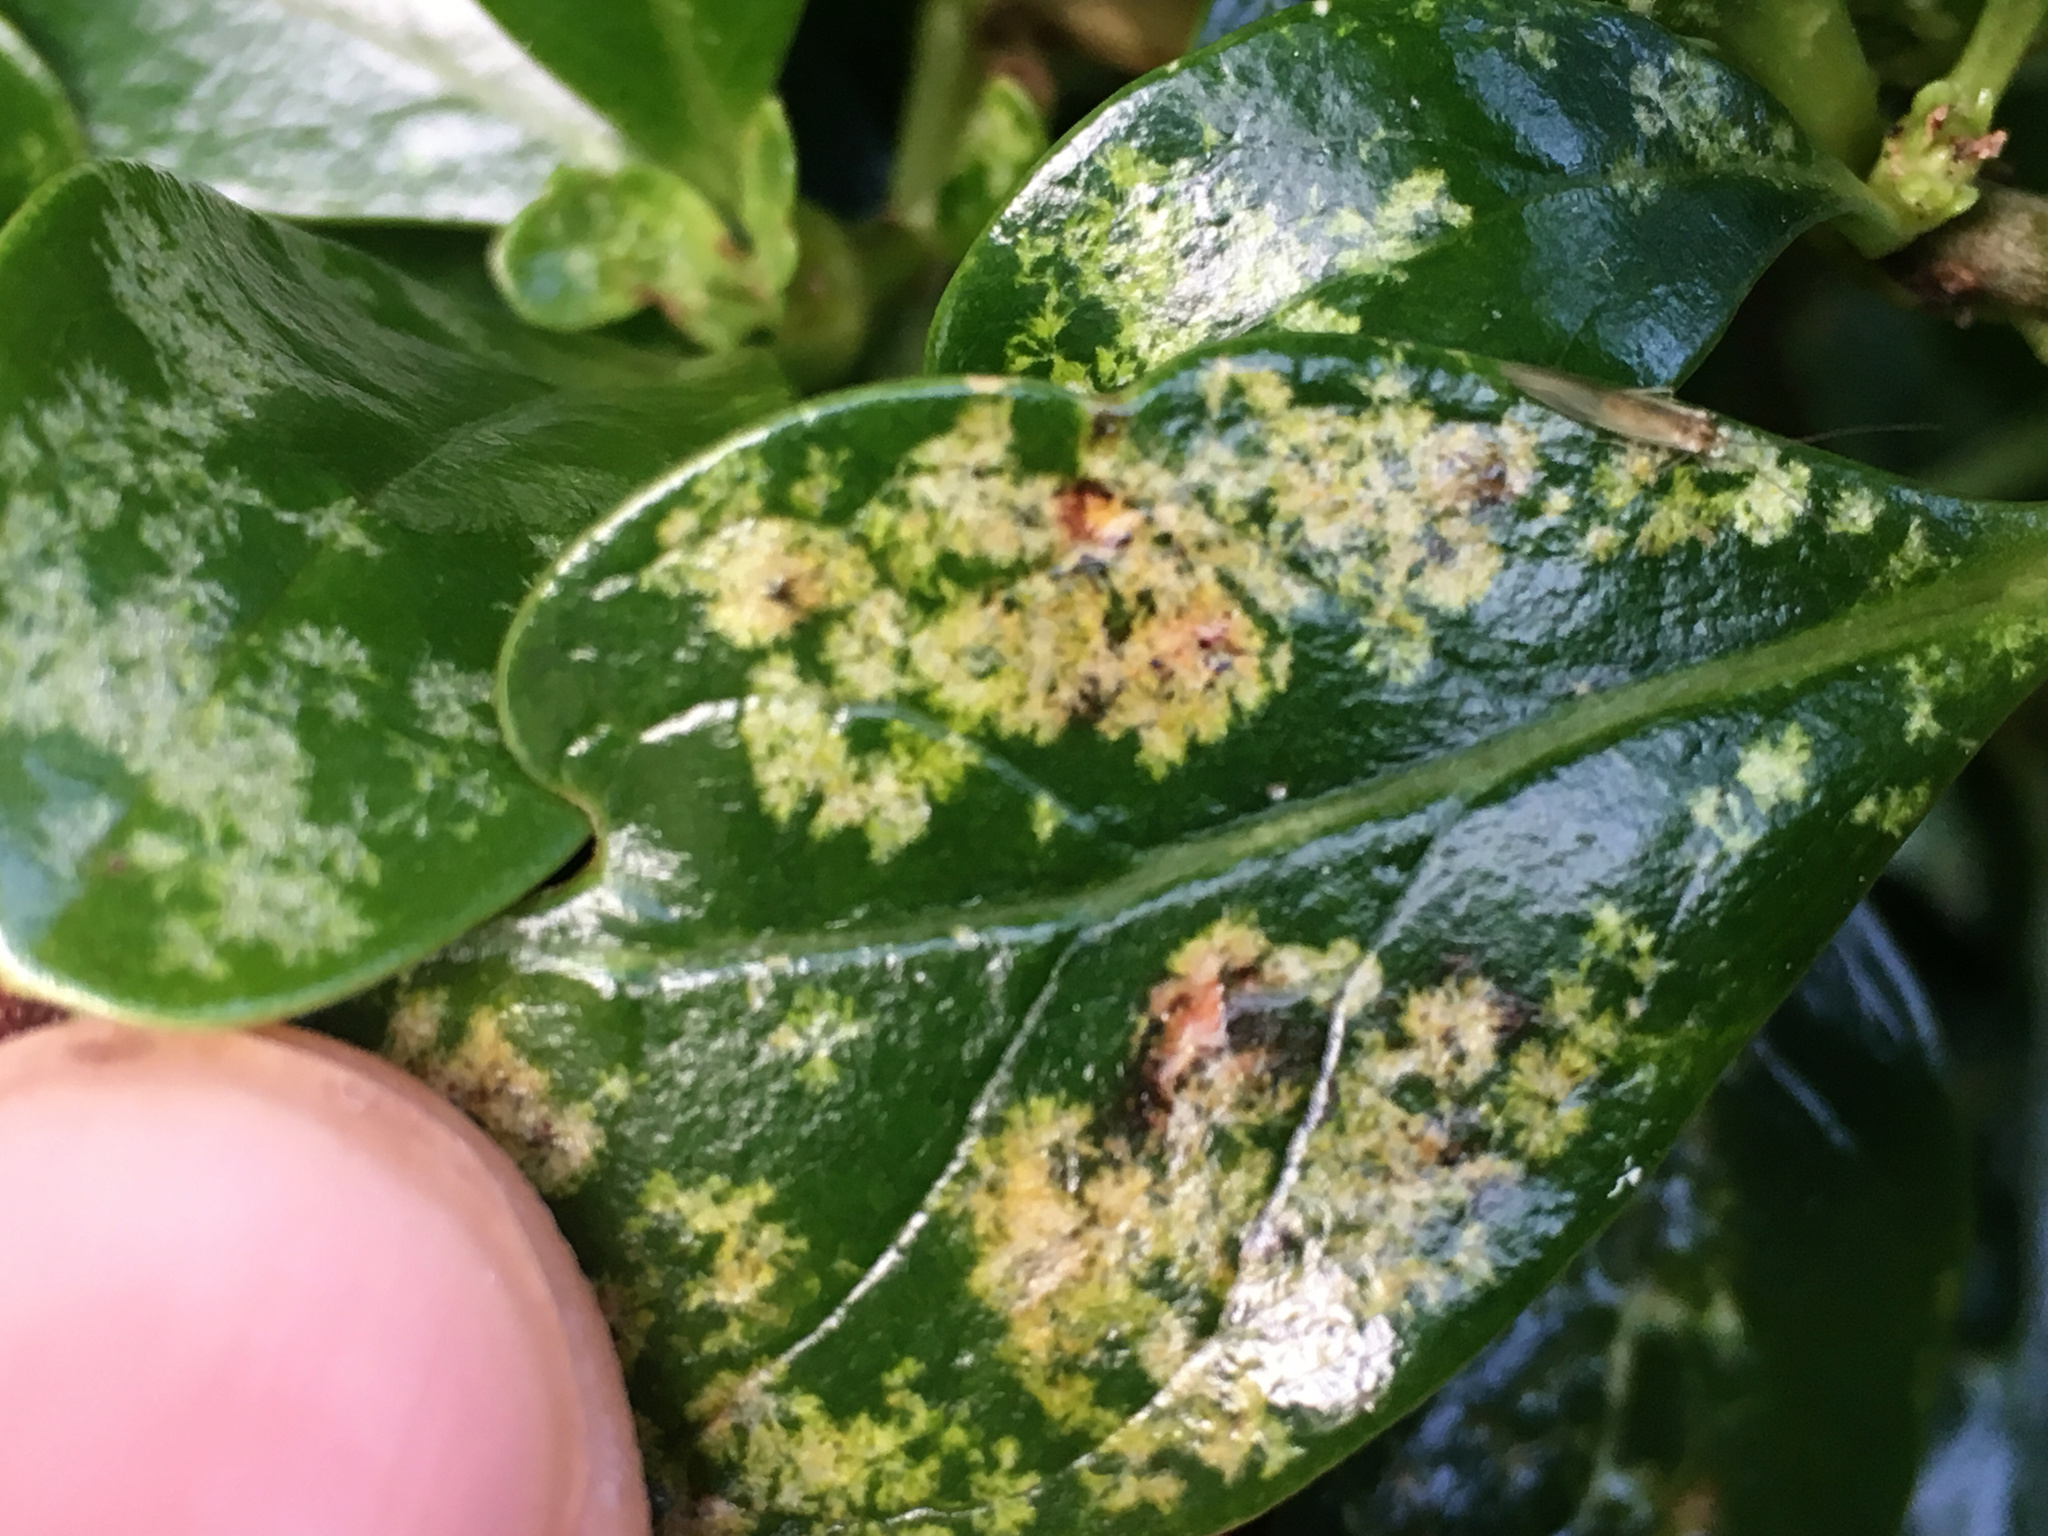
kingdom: Plantae
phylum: Tracheophyta
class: Magnoliopsida
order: Gentianales
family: Rubiaceae
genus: Coprosma
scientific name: Coprosma repens
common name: Tree bedstraw
